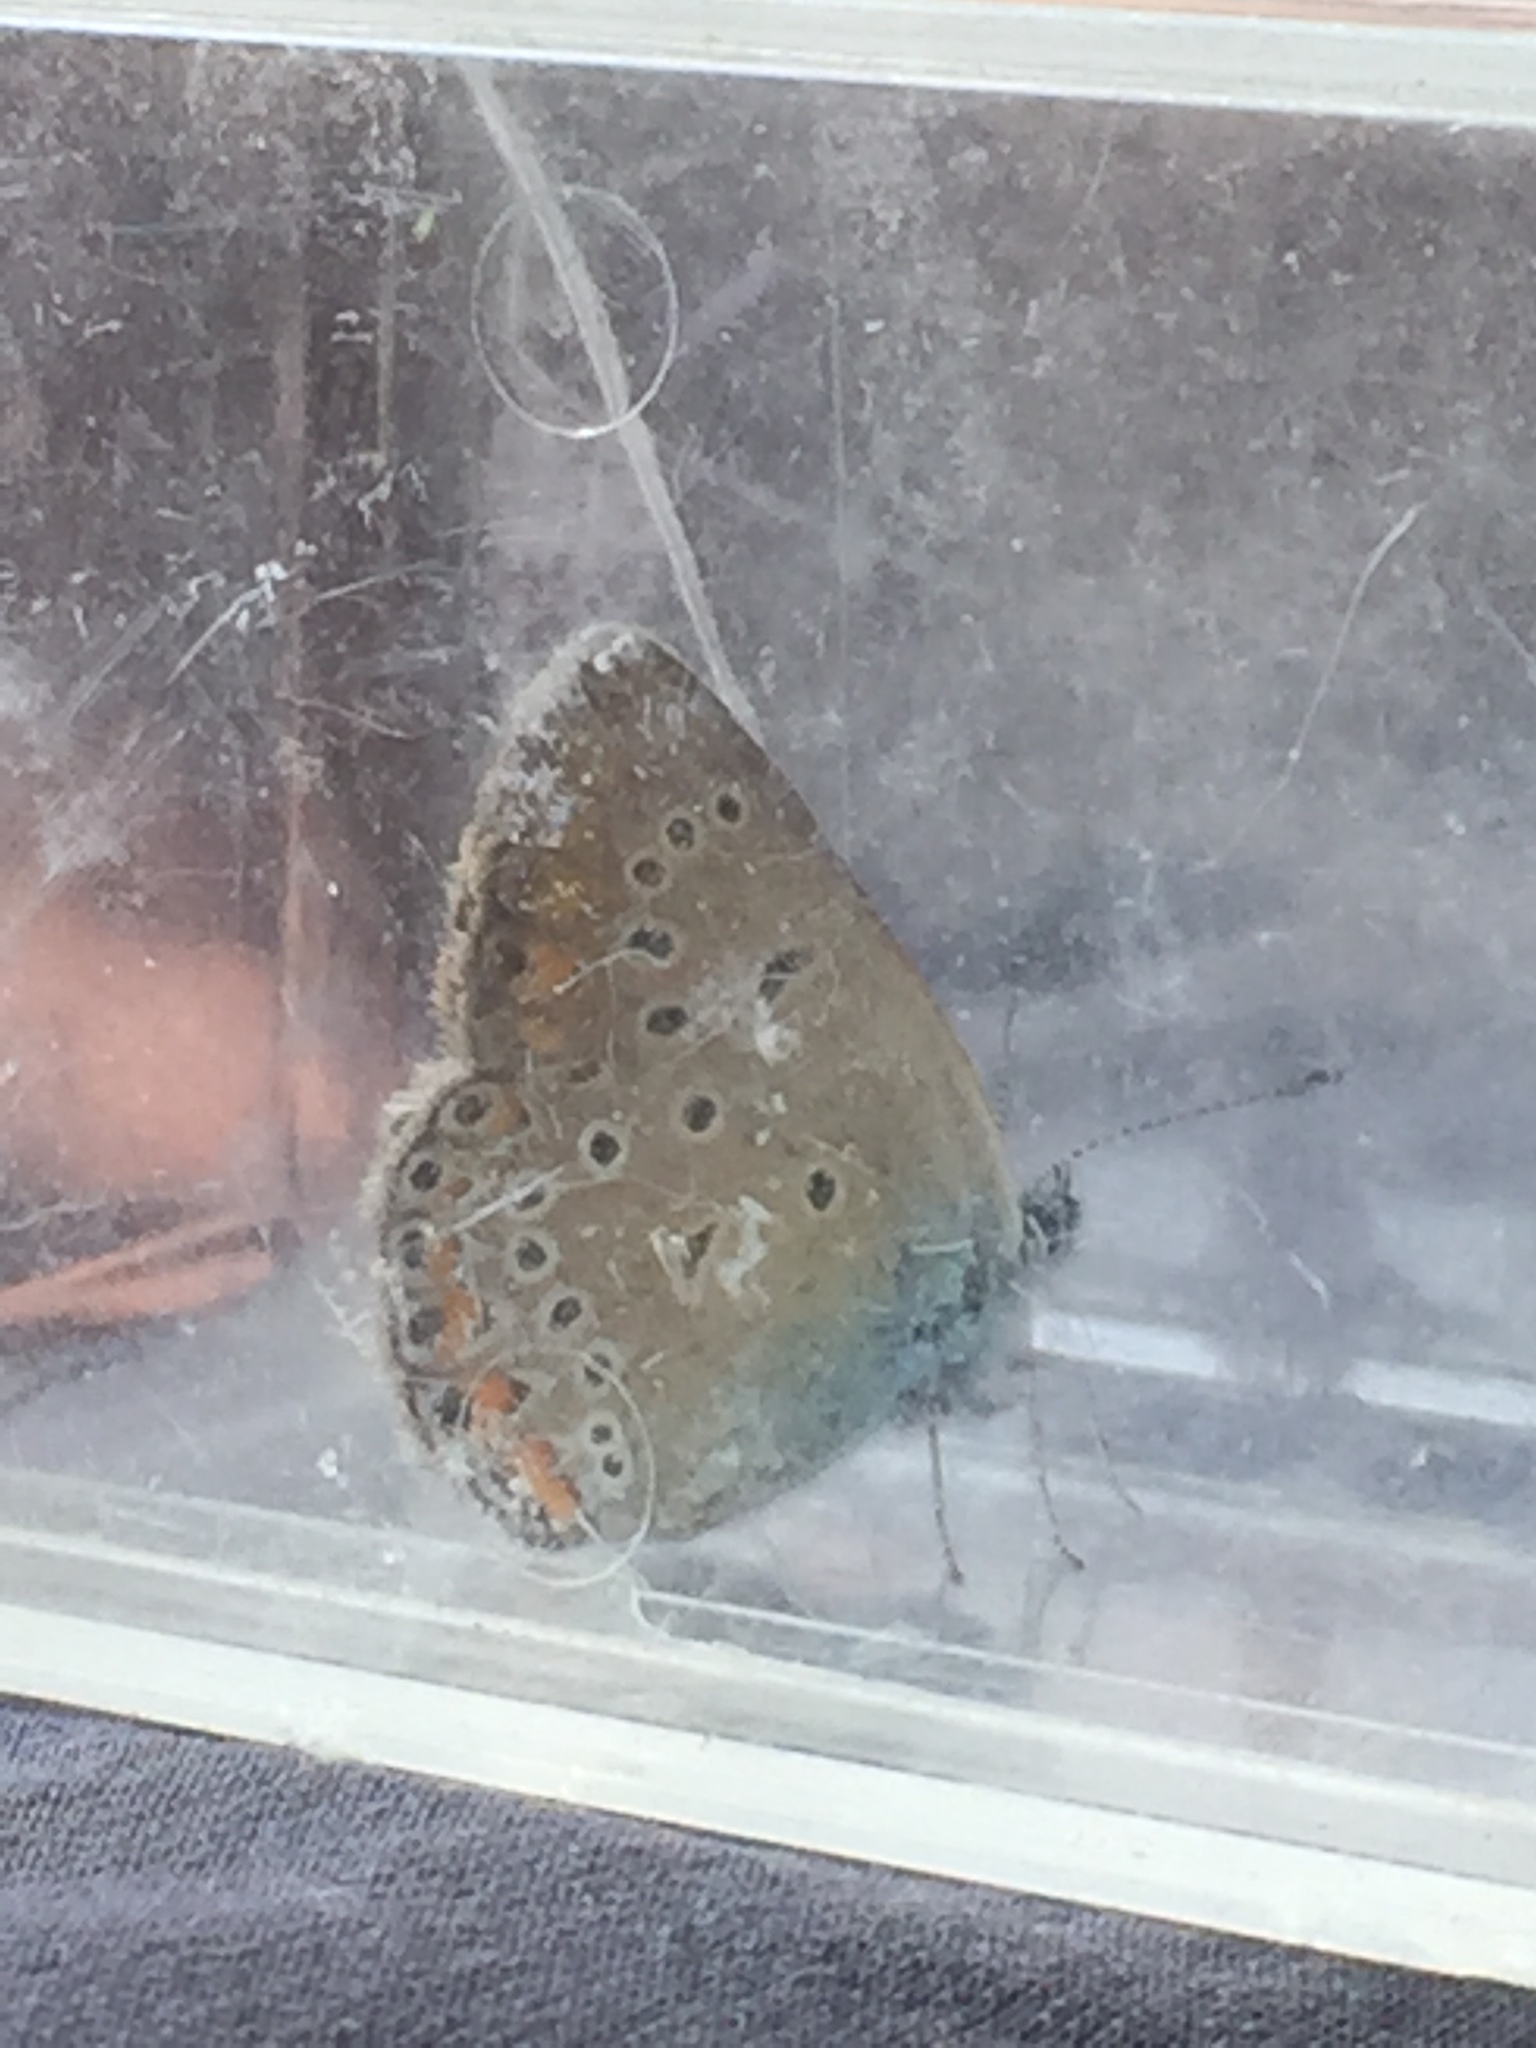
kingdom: Animalia
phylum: Arthropoda
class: Insecta
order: Lepidoptera
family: Lycaenidae
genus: Plebejus
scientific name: Plebejus amanda
